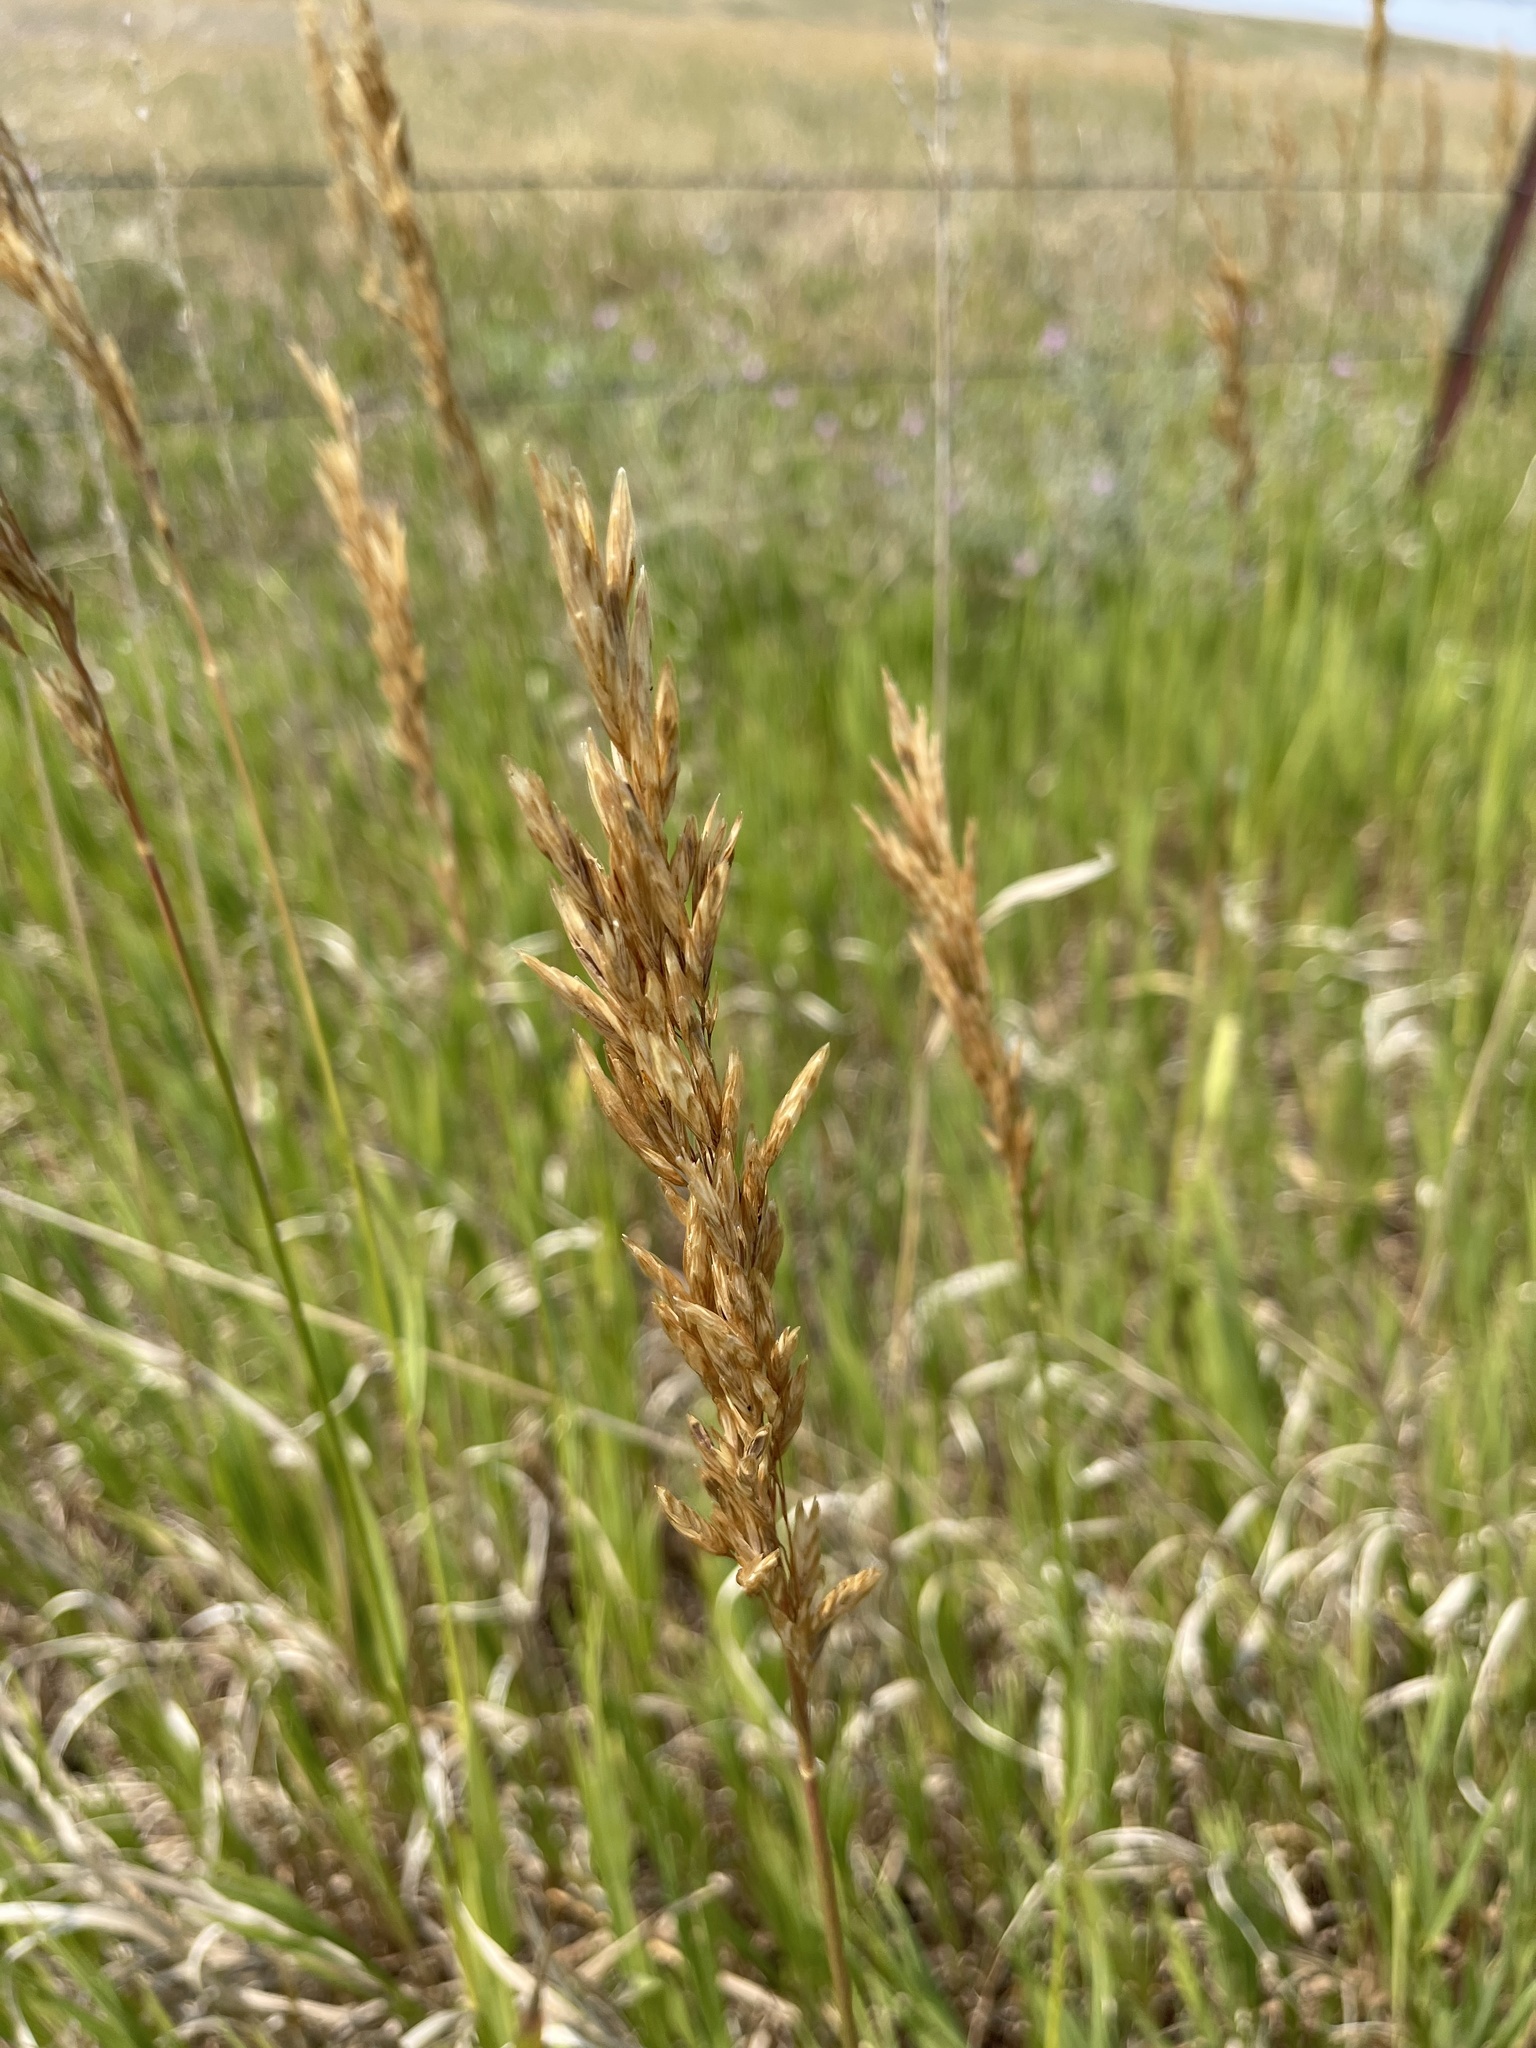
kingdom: Plantae
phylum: Tracheophyta
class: Liliopsida
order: Poales
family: Poaceae
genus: Bromus
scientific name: Bromus inermis
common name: Smooth brome
